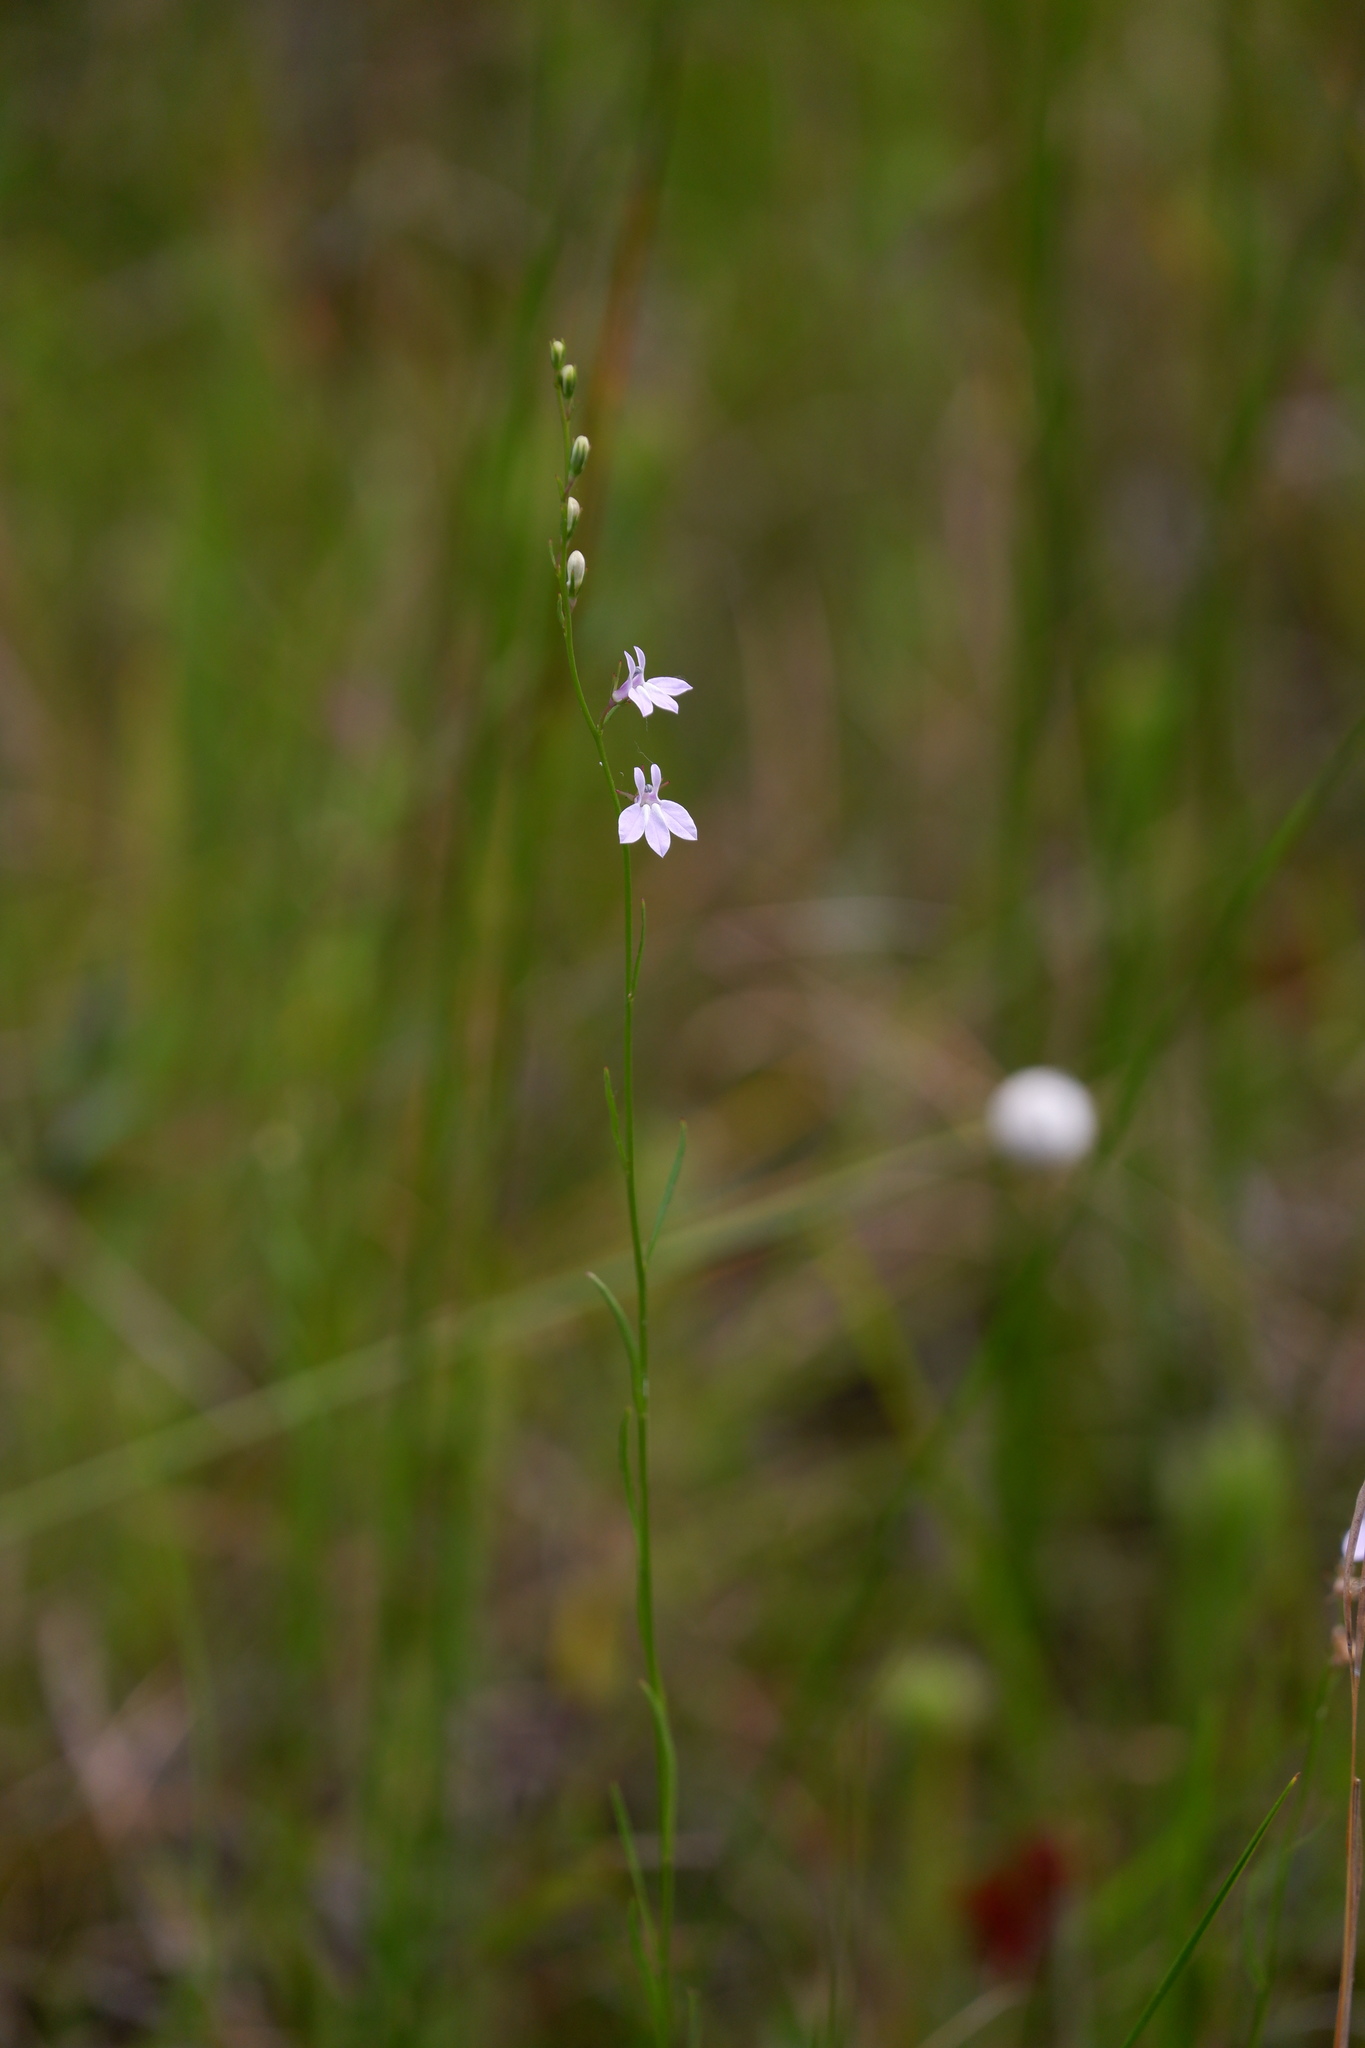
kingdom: Plantae
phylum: Tracheophyta
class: Magnoliopsida
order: Asterales
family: Campanulaceae
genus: Lobelia
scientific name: Lobelia canbyi
